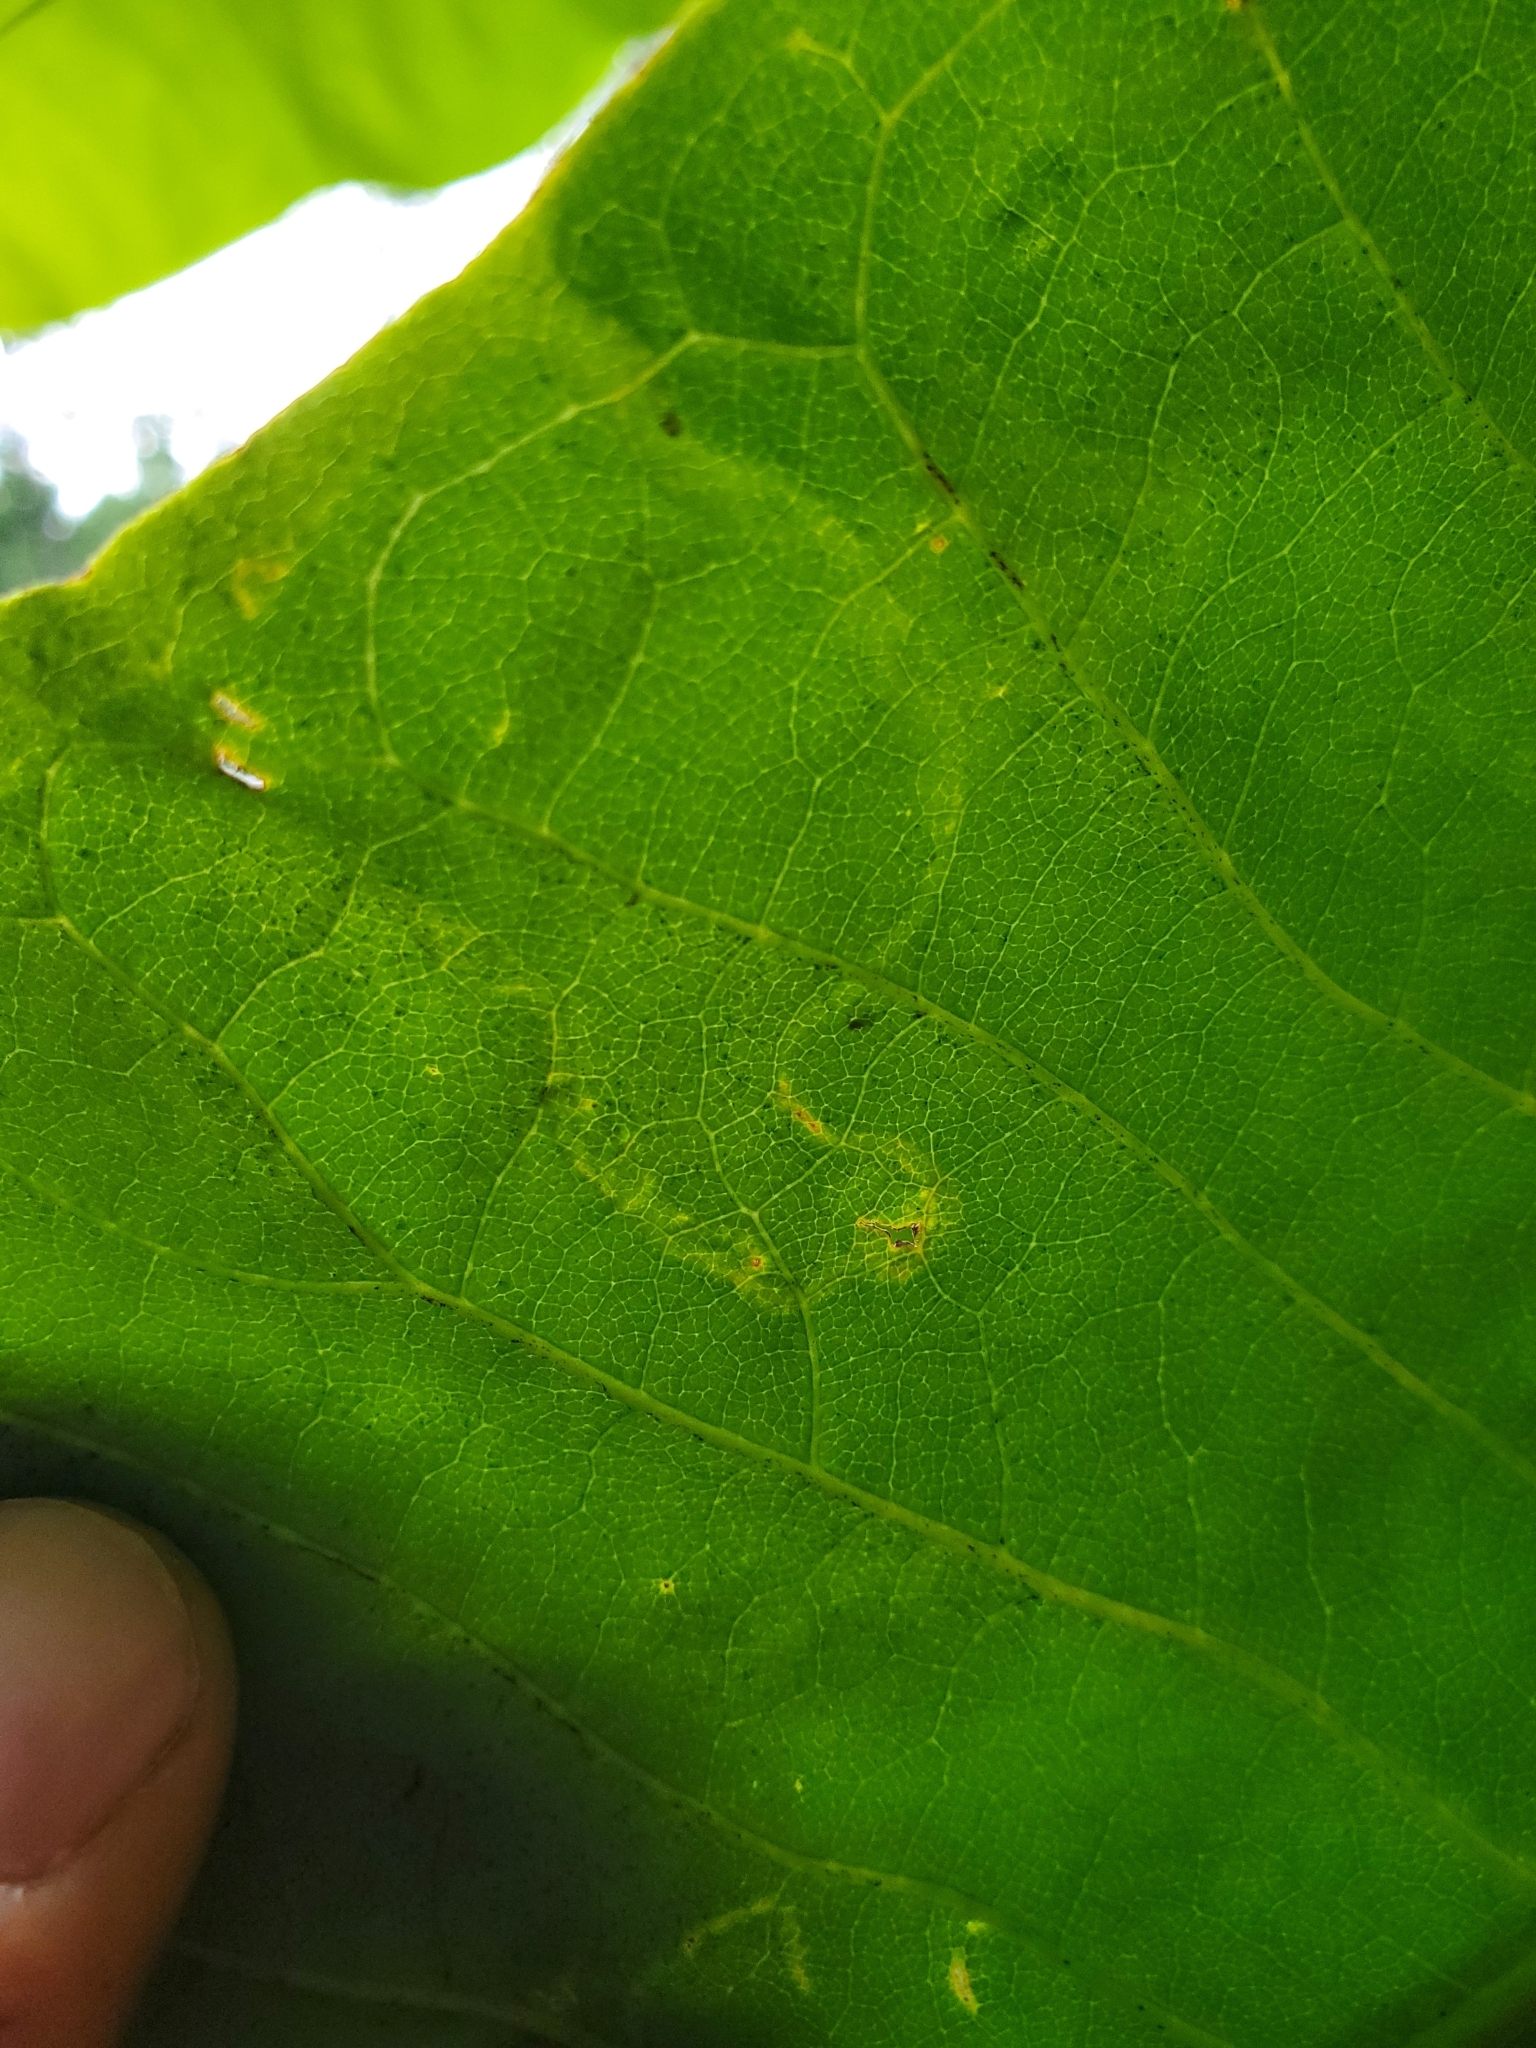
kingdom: Animalia
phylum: Arthropoda
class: Insecta
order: Lepidoptera
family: Gracillariidae
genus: Phyllocnistis
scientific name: Phyllocnistis liriodendronella
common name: Tulip tree leaf miner
